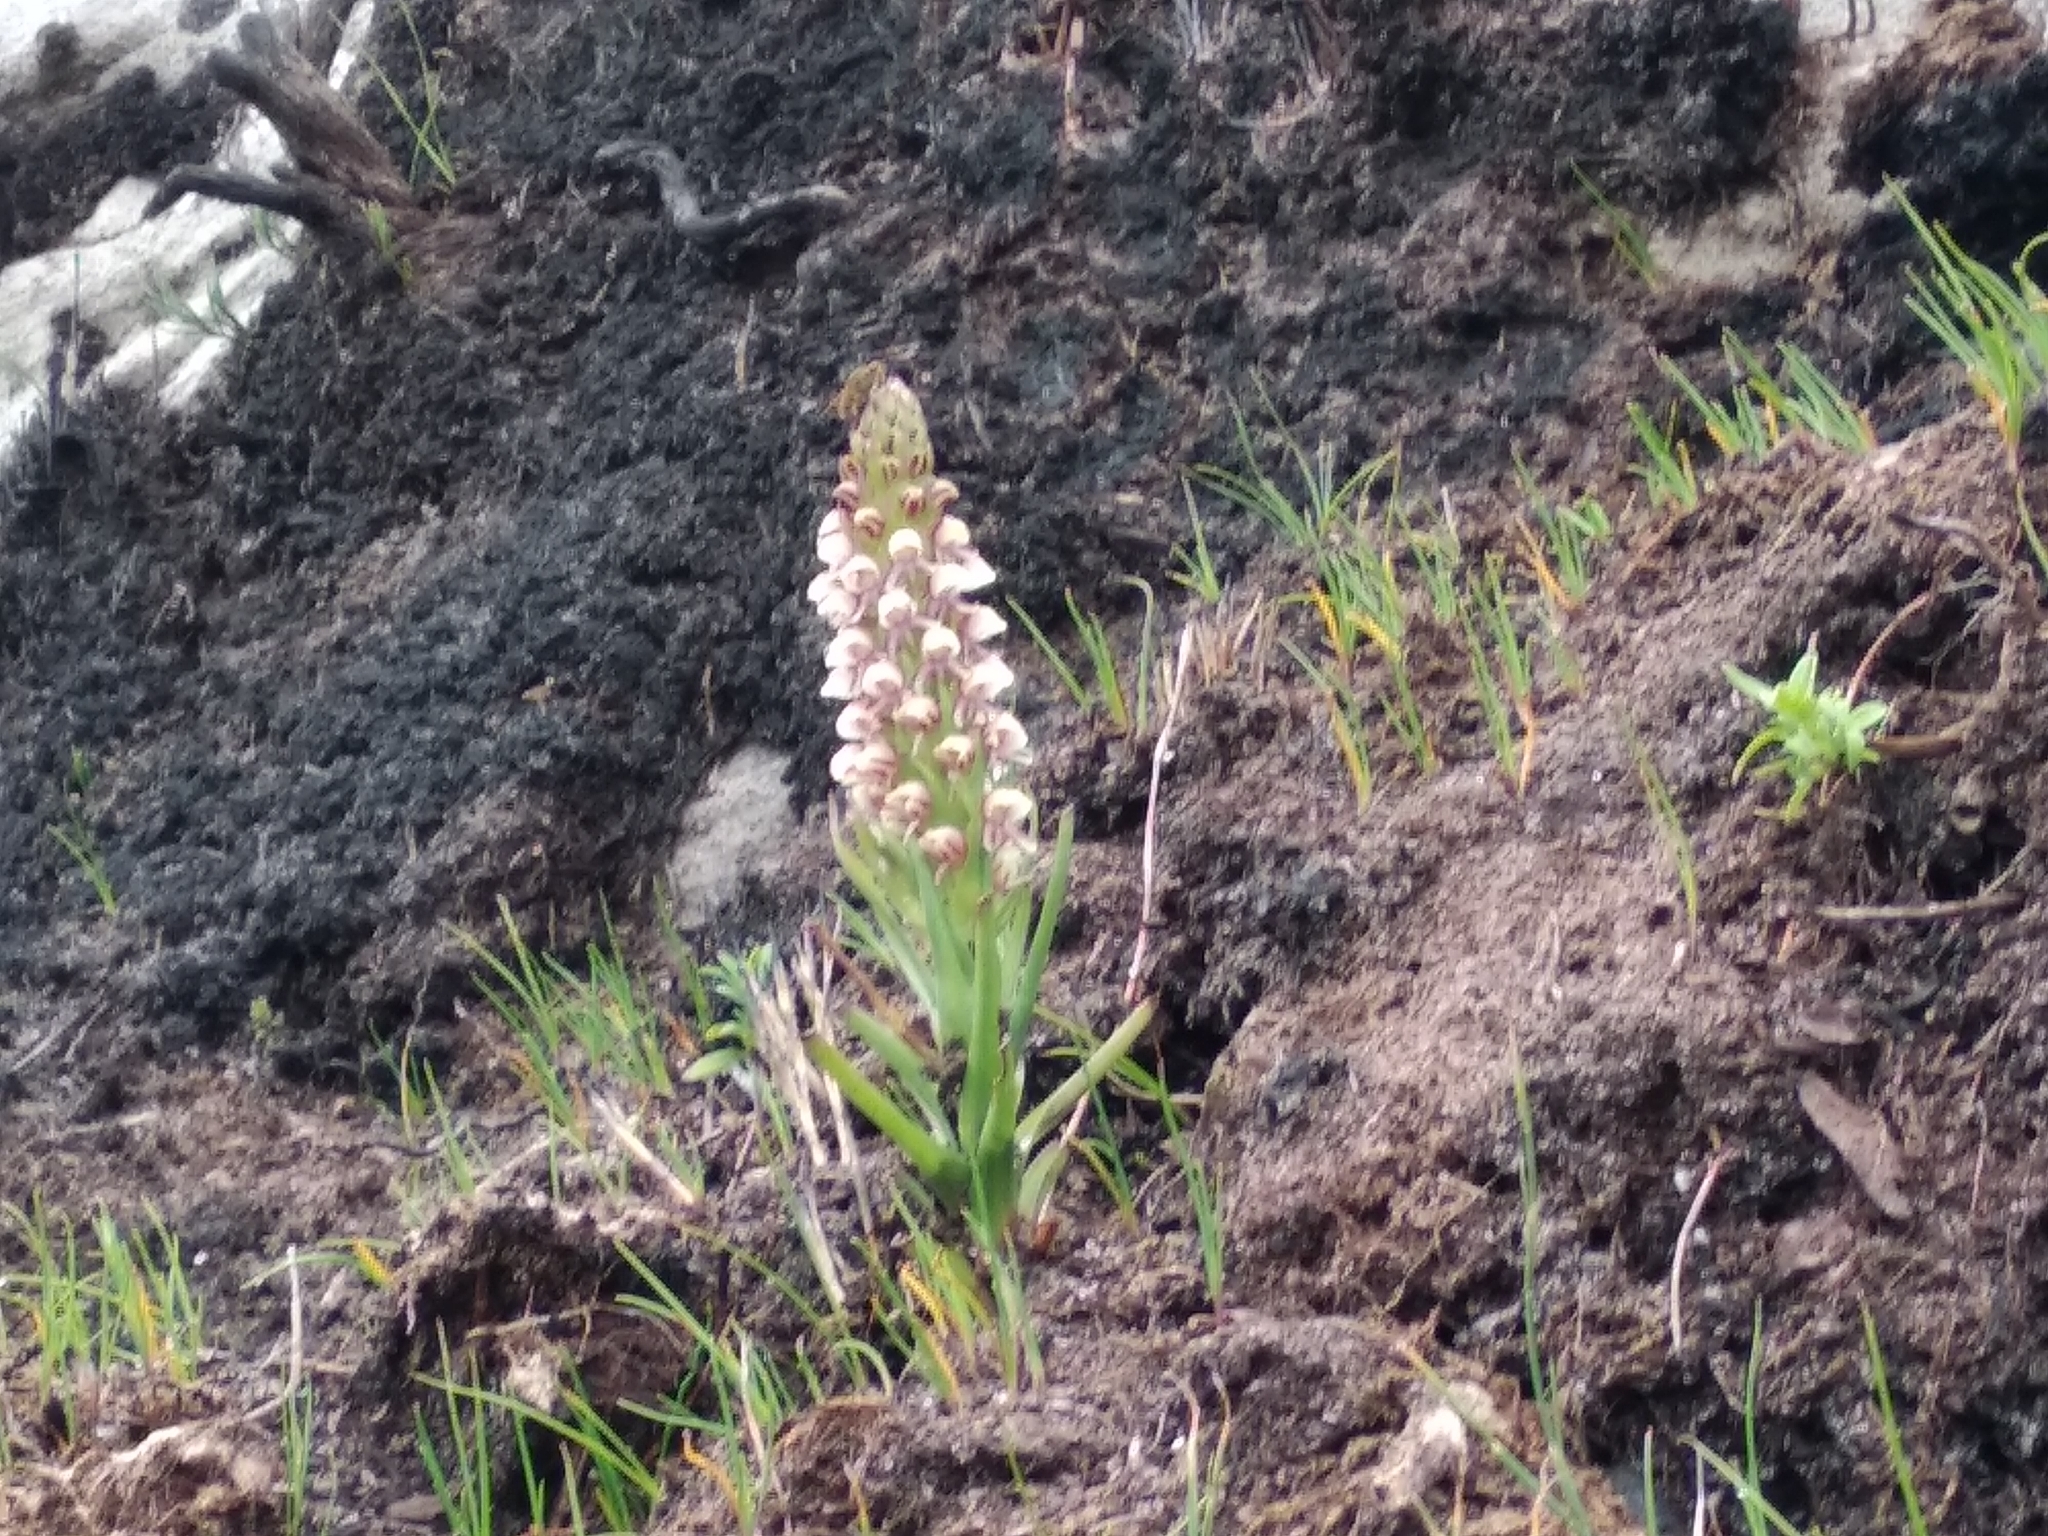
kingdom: Plantae
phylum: Tracheophyta
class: Liliopsida
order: Asparagales
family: Orchidaceae
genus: Disa
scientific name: Disa obtusa
